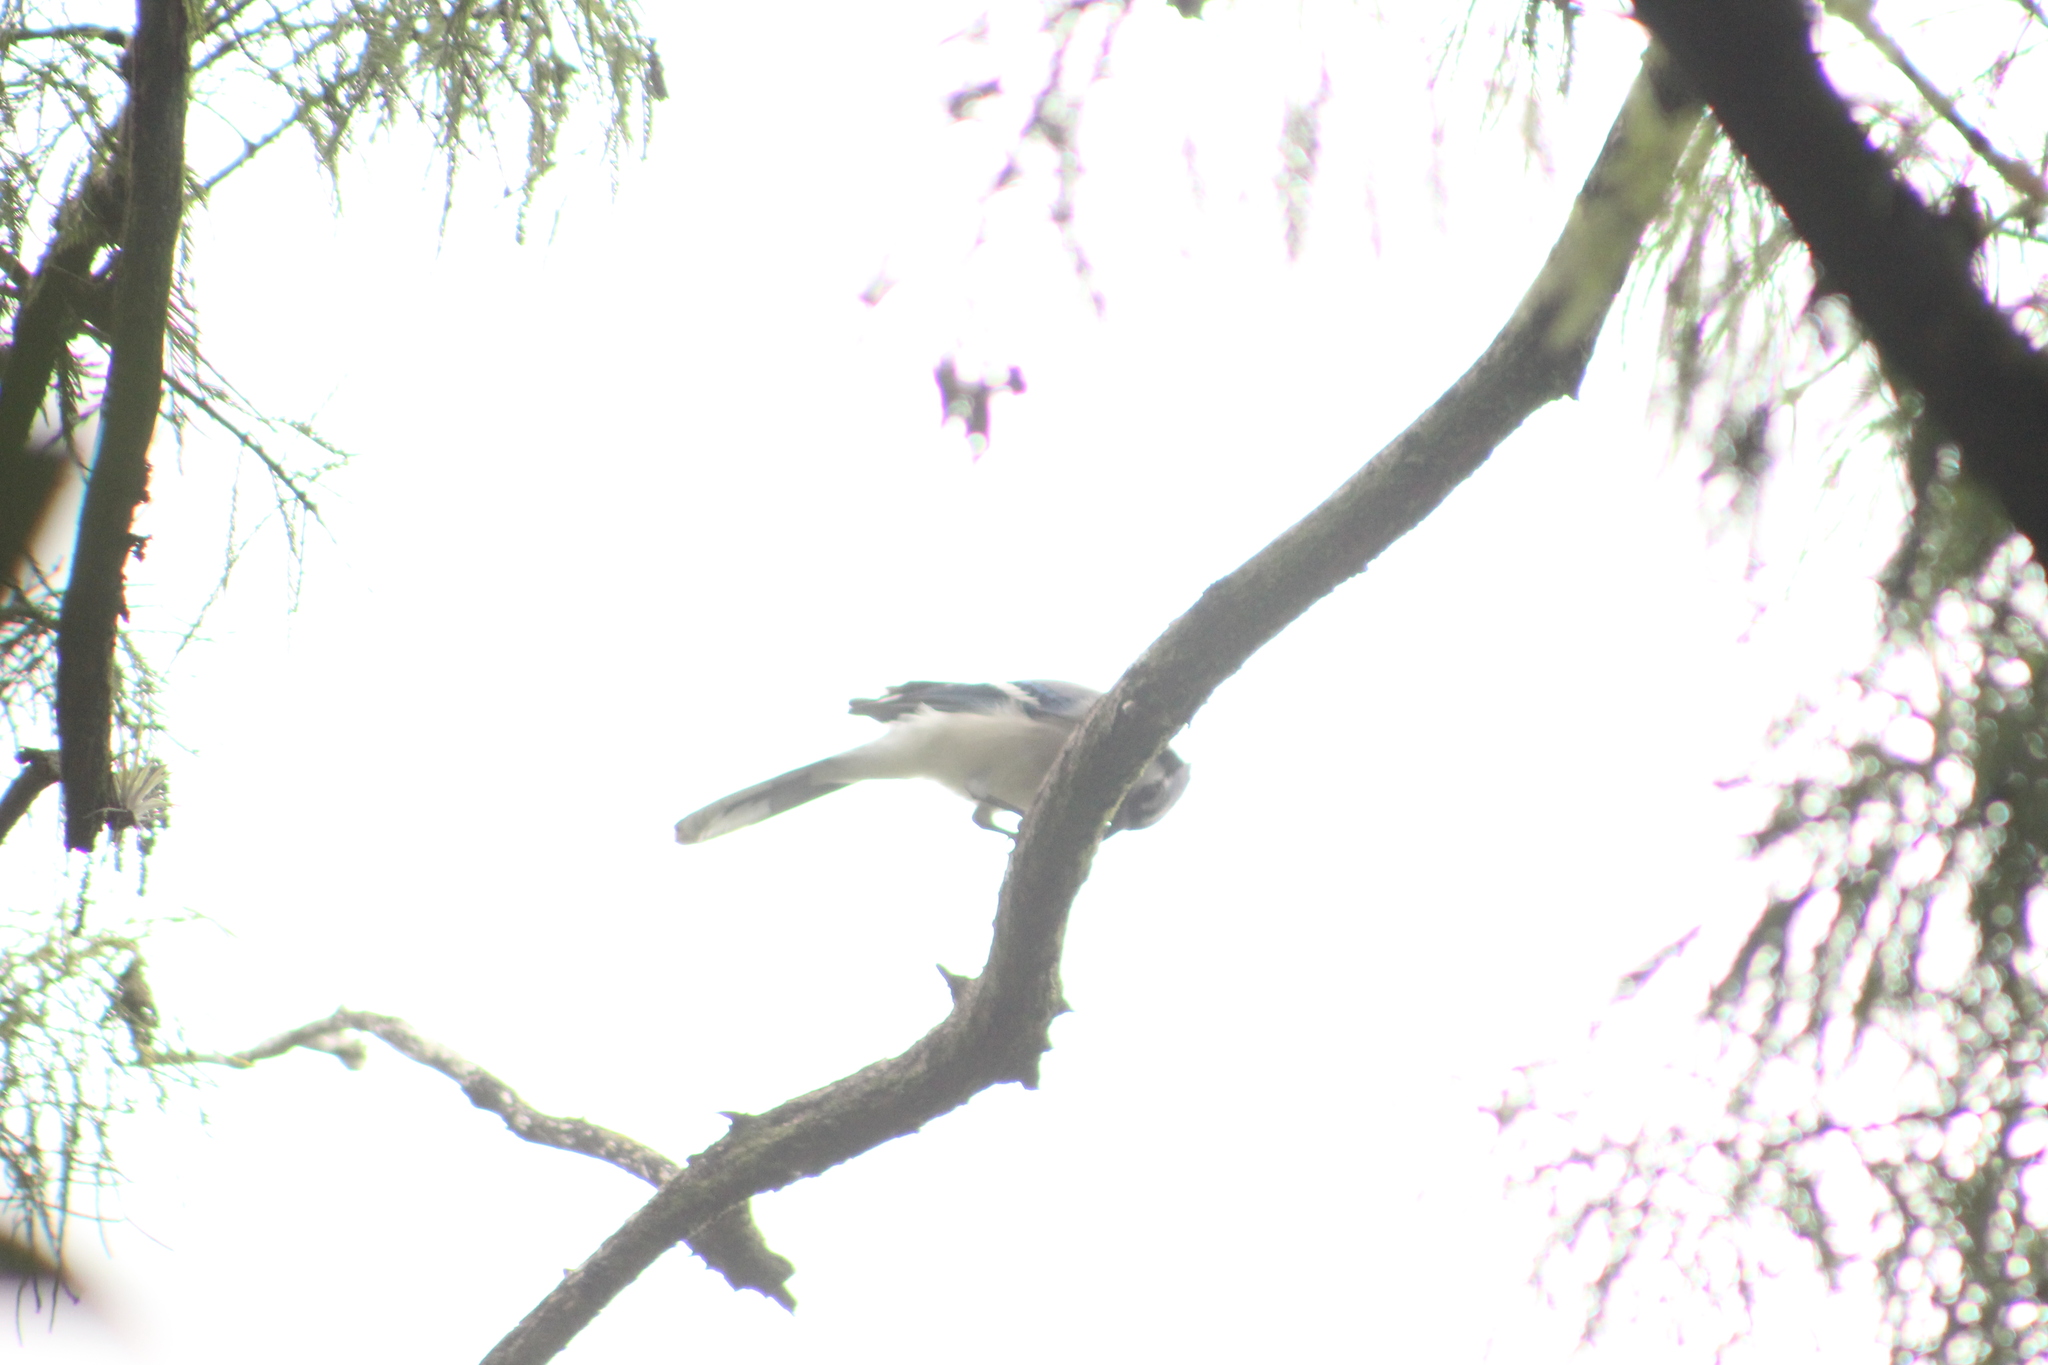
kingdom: Animalia
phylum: Chordata
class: Aves
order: Passeriformes
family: Corvidae
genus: Cyanocitta
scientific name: Cyanocitta cristata
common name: Blue jay
